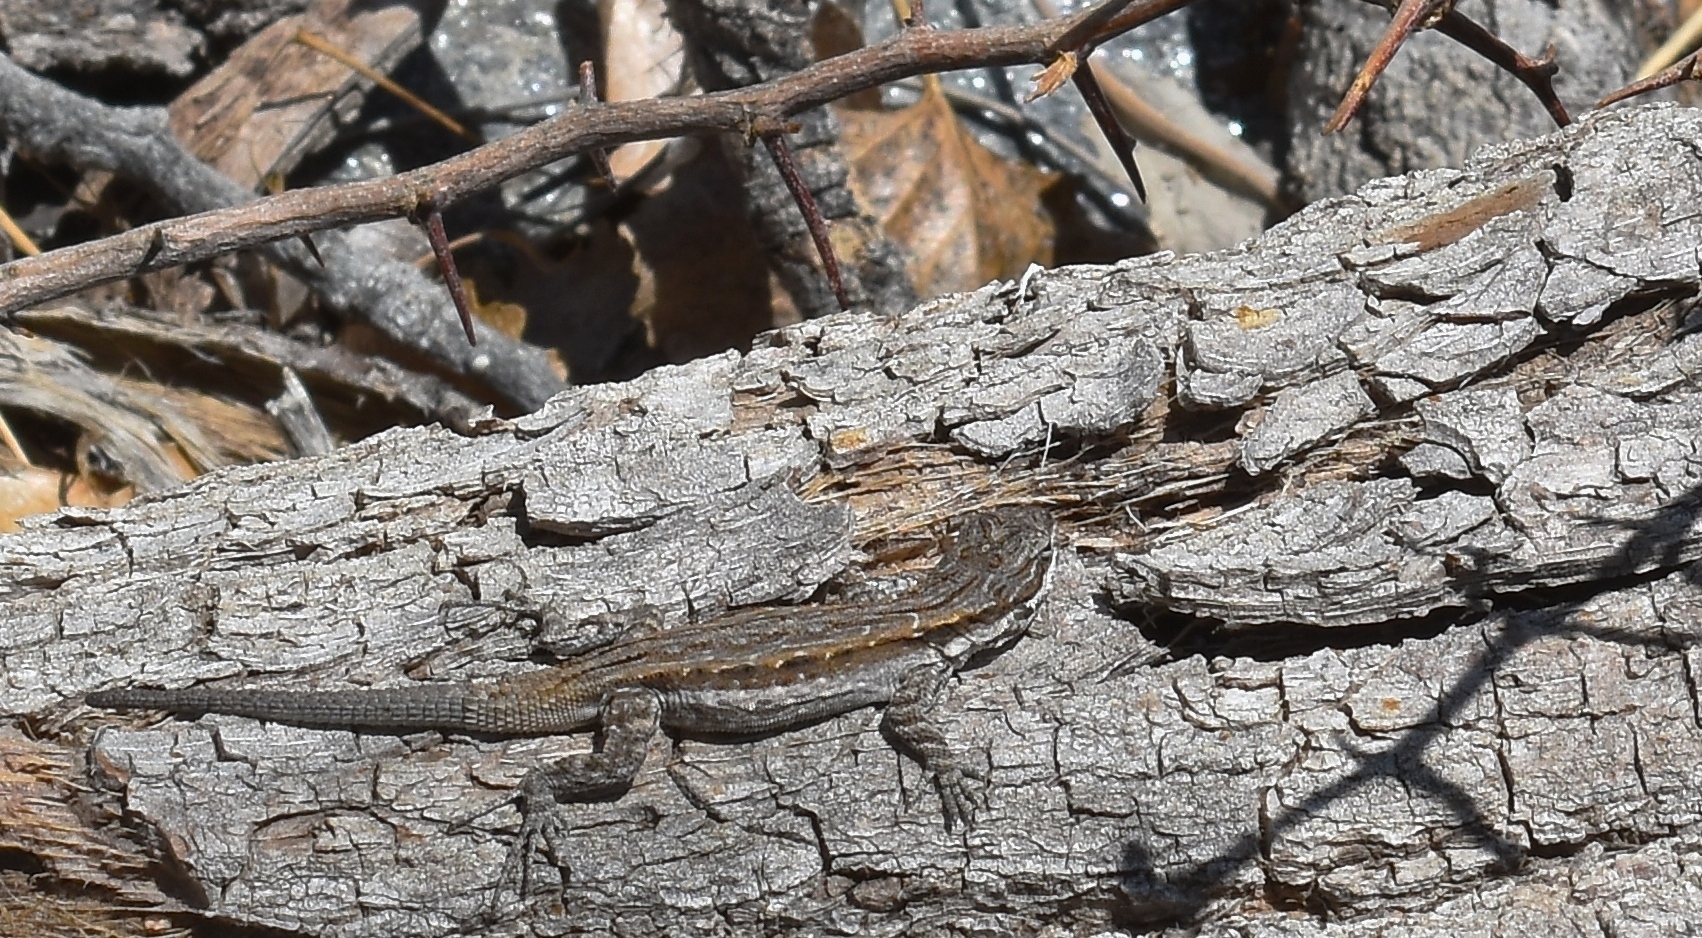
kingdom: Animalia
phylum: Chordata
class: Squamata
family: Phrynosomatidae
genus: Urosaurus
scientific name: Urosaurus ornatus
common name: Ornate tree lizard
